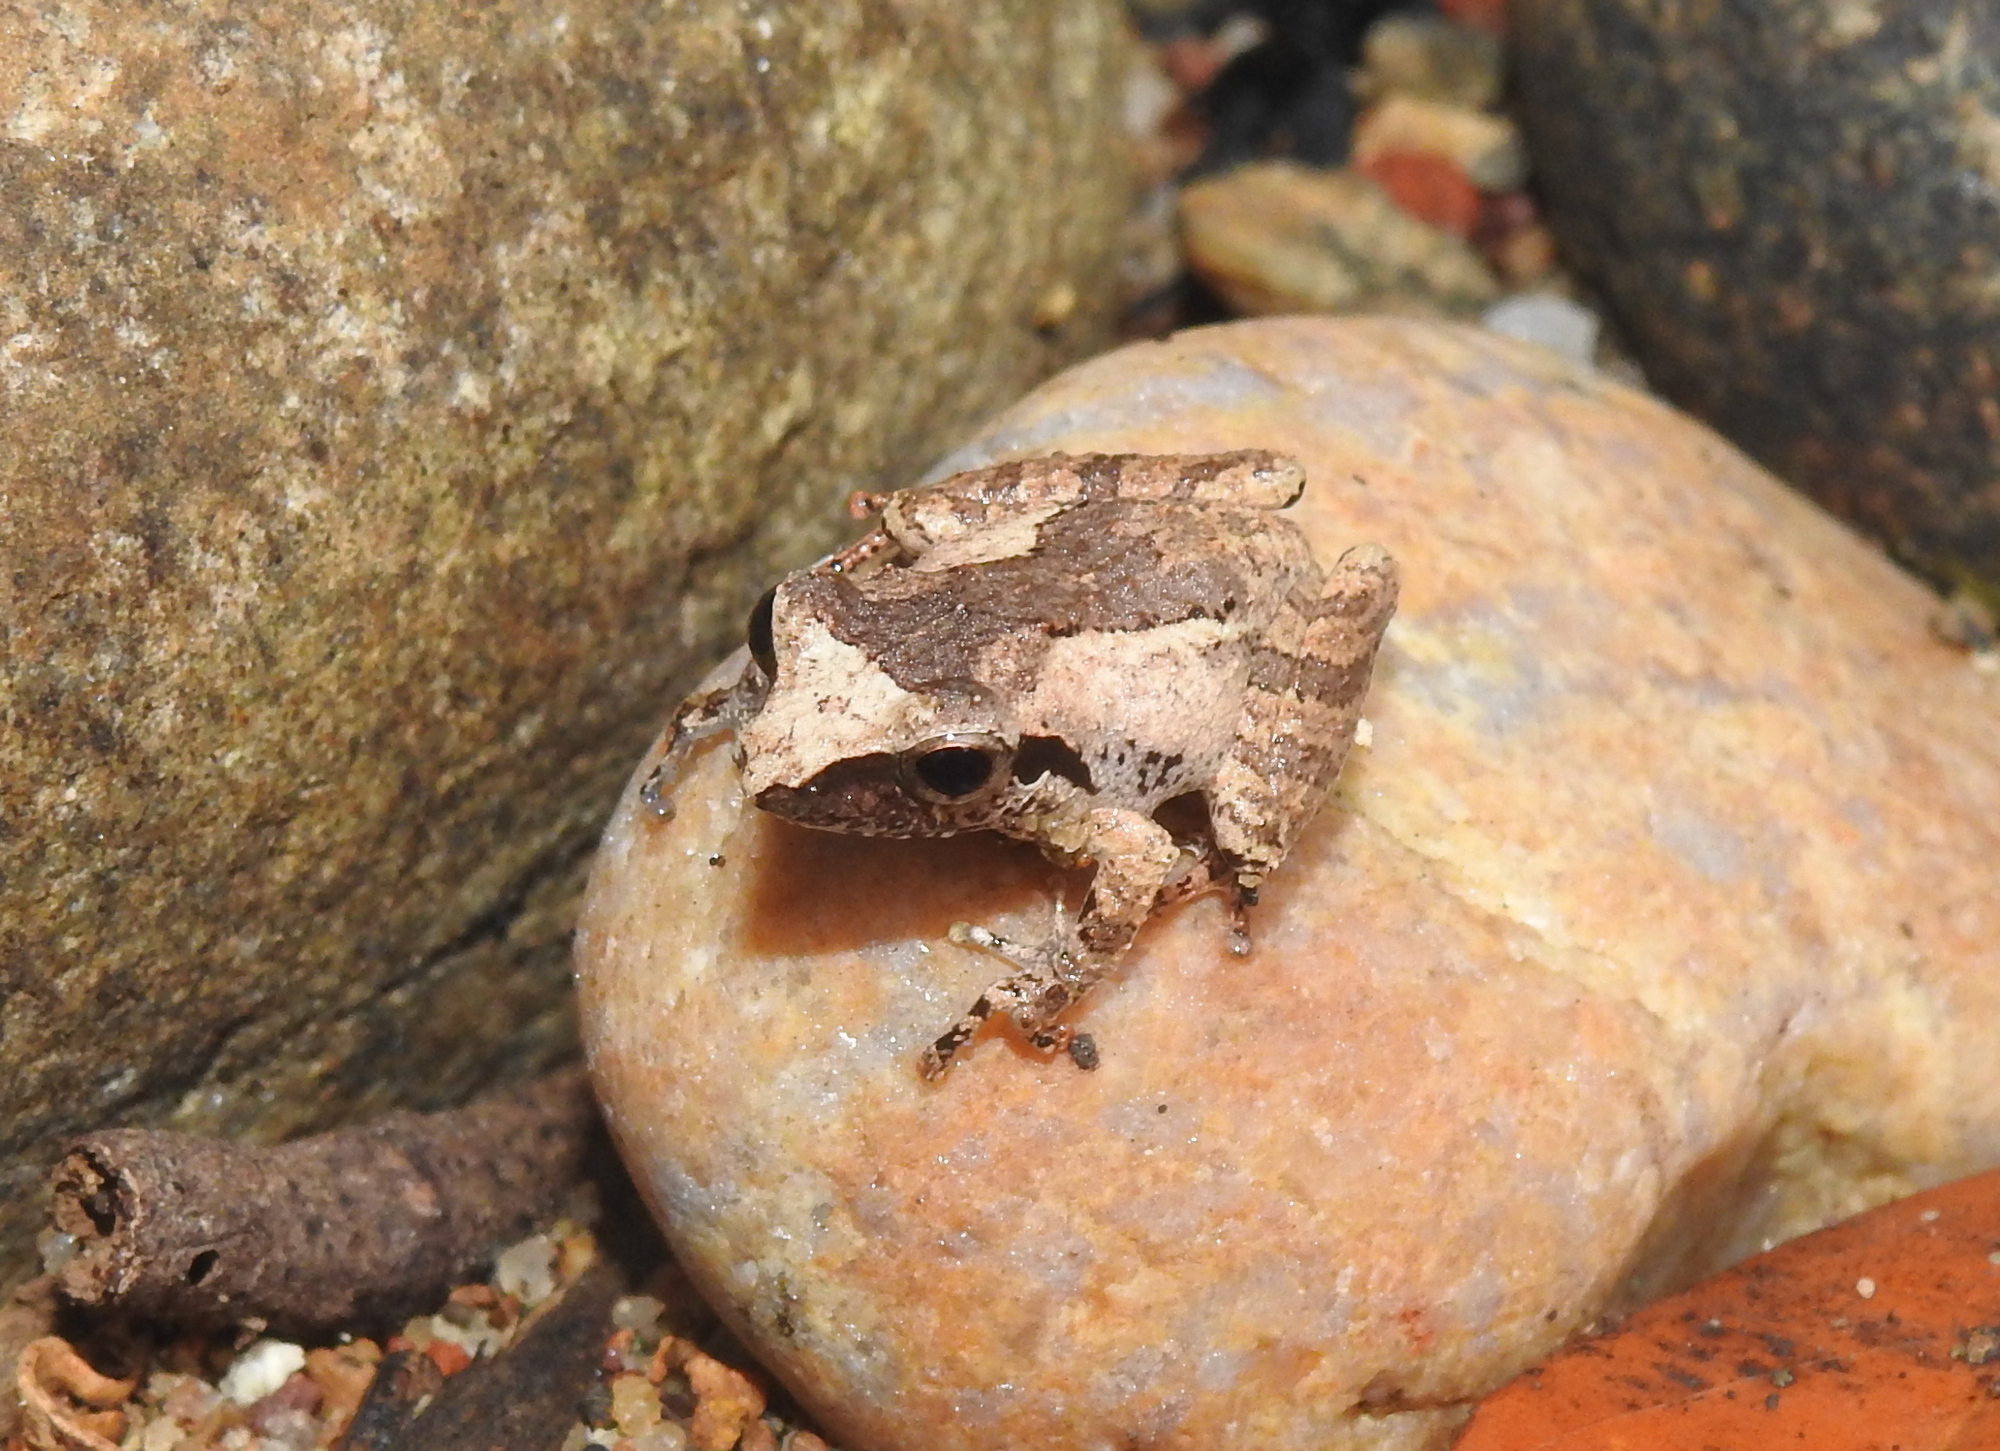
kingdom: Animalia
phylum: Chordata
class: Amphibia
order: Anura
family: Rhacophoridae
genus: Pseudophilautus
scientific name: Pseudophilautus wynaadensis
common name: Dark-eared bush frog
